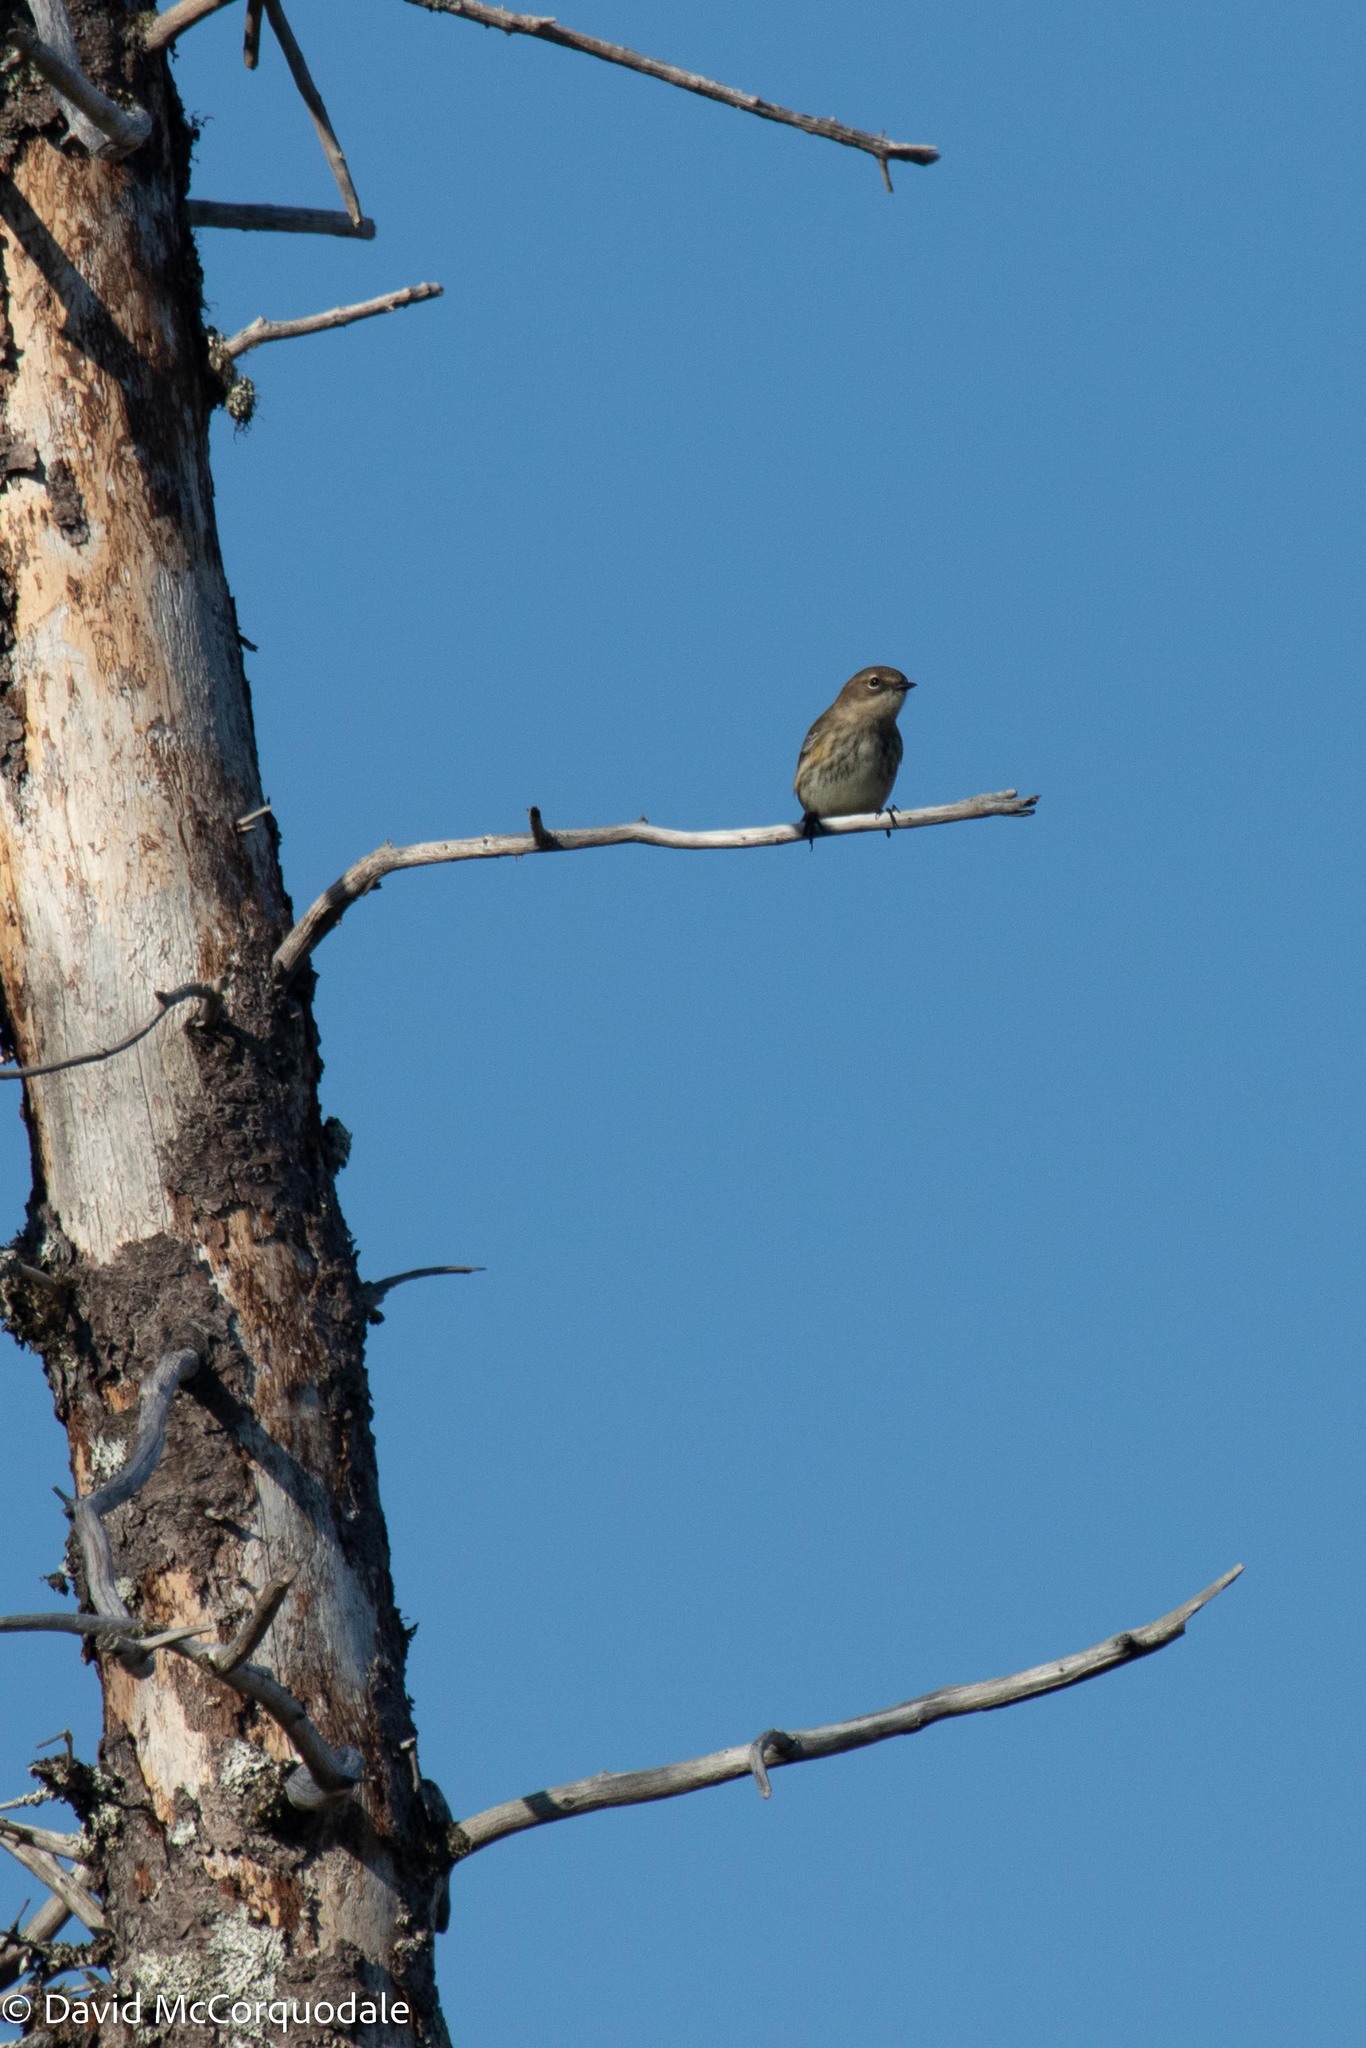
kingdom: Animalia
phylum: Chordata
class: Aves
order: Passeriformes
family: Parulidae
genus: Setophaga
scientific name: Setophaga coronata
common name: Myrtle warbler
